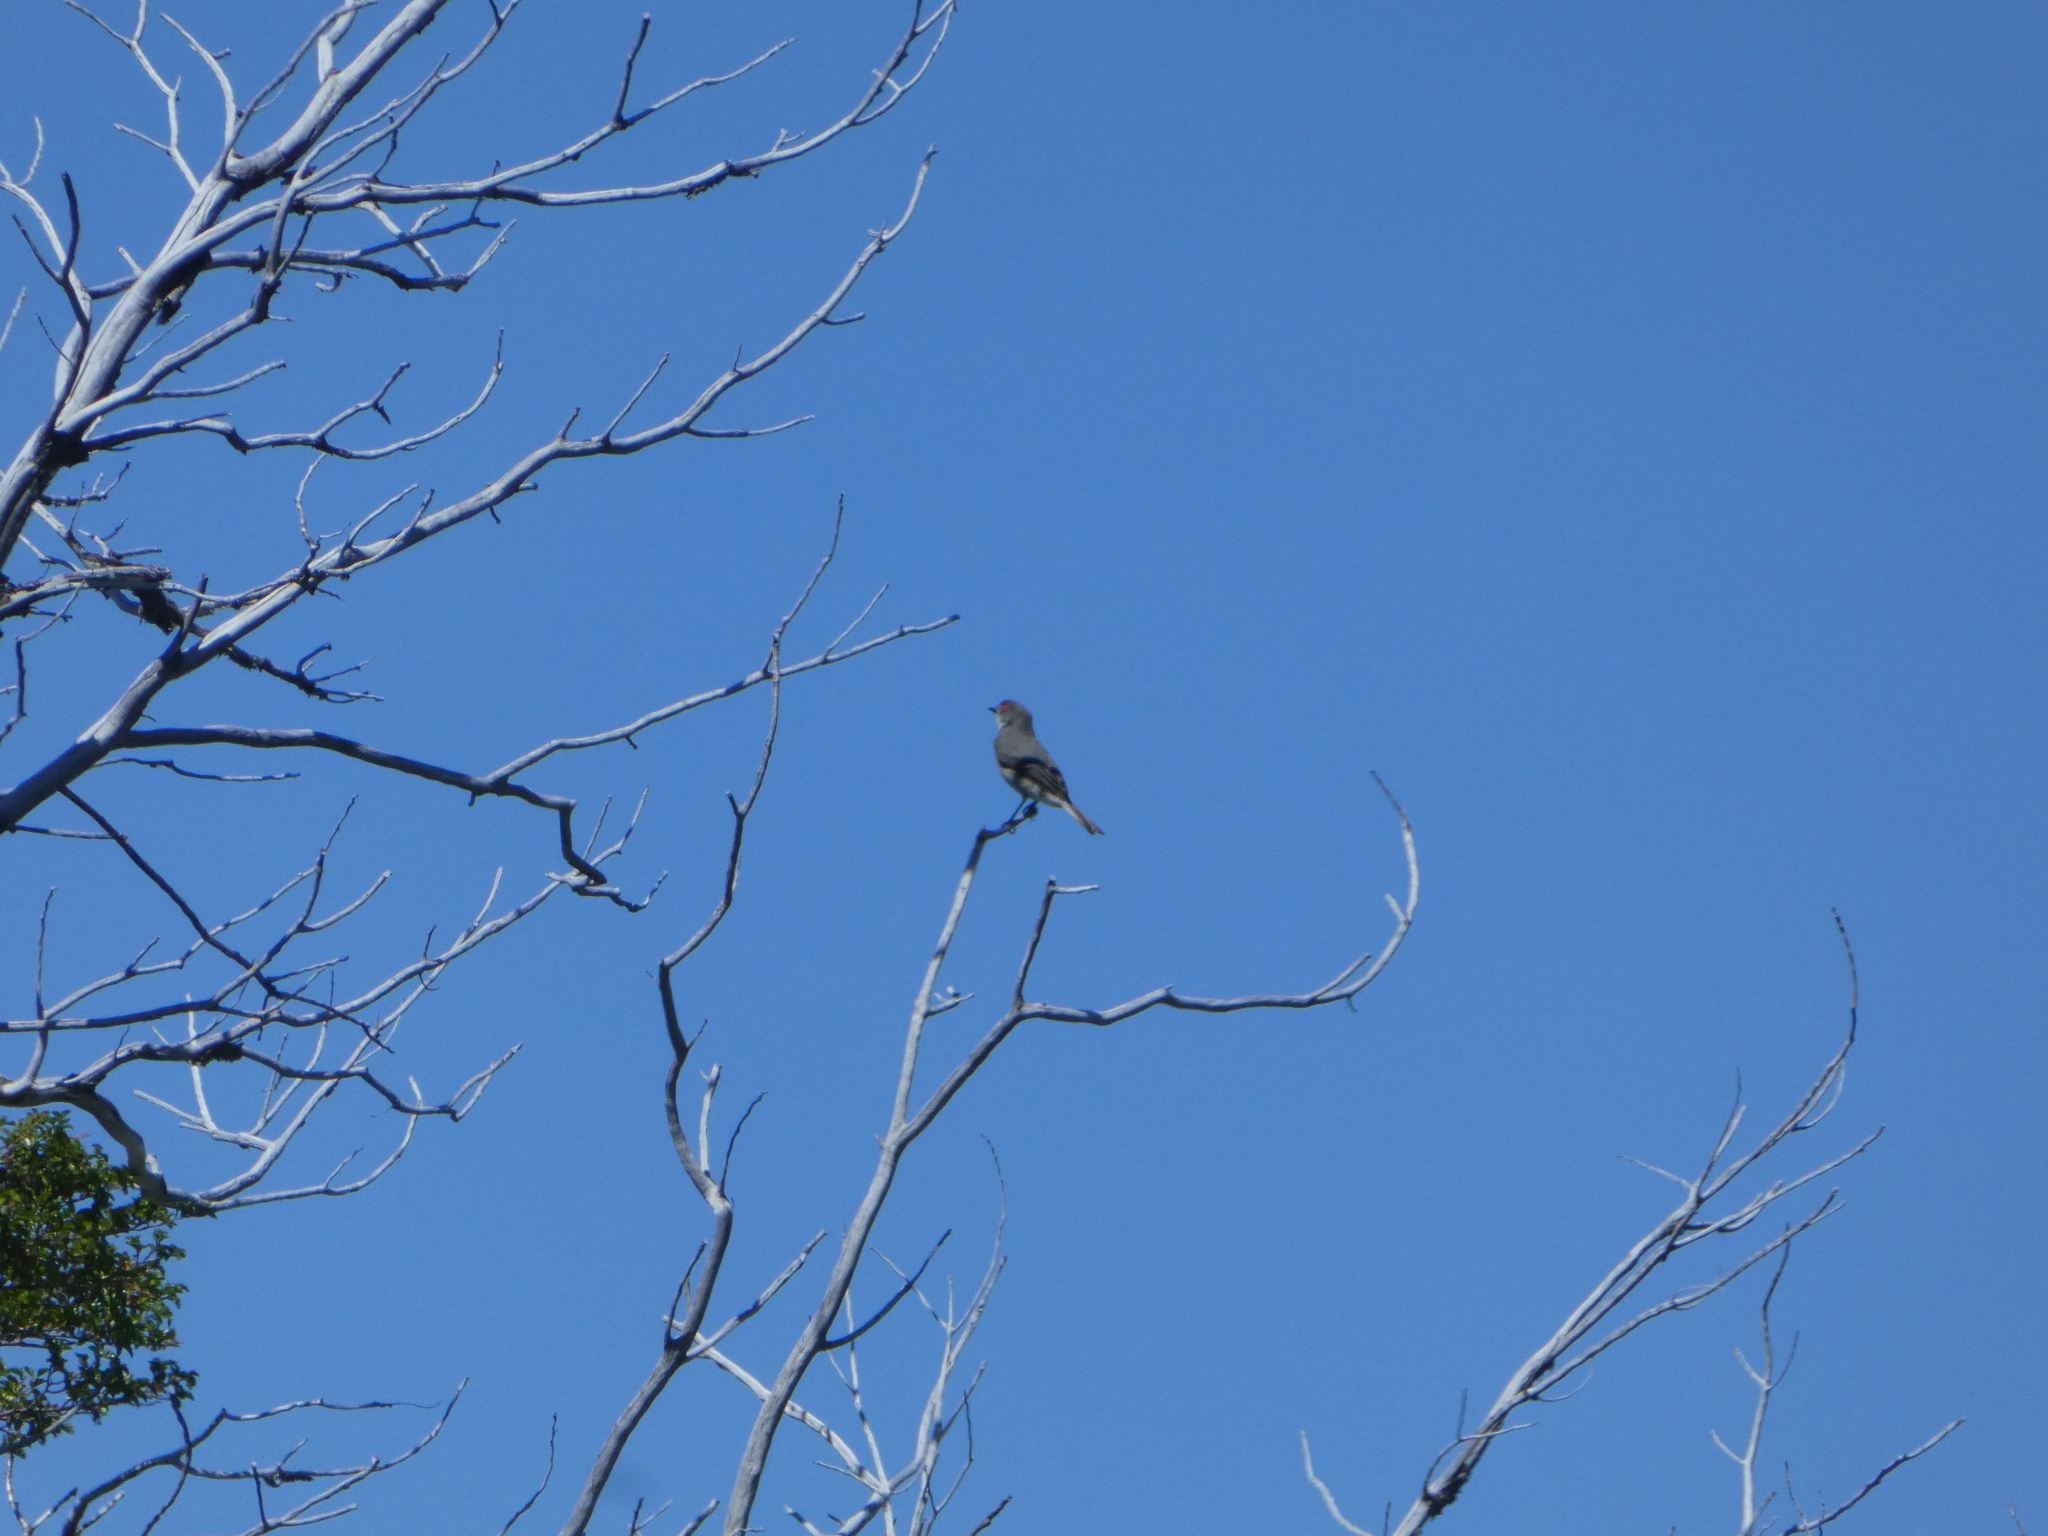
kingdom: Animalia
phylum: Chordata
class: Aves
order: Passeriformes
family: Tyrannidae
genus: Xolmis
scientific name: Xolmis pyrope
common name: Fire-eyed diucon
